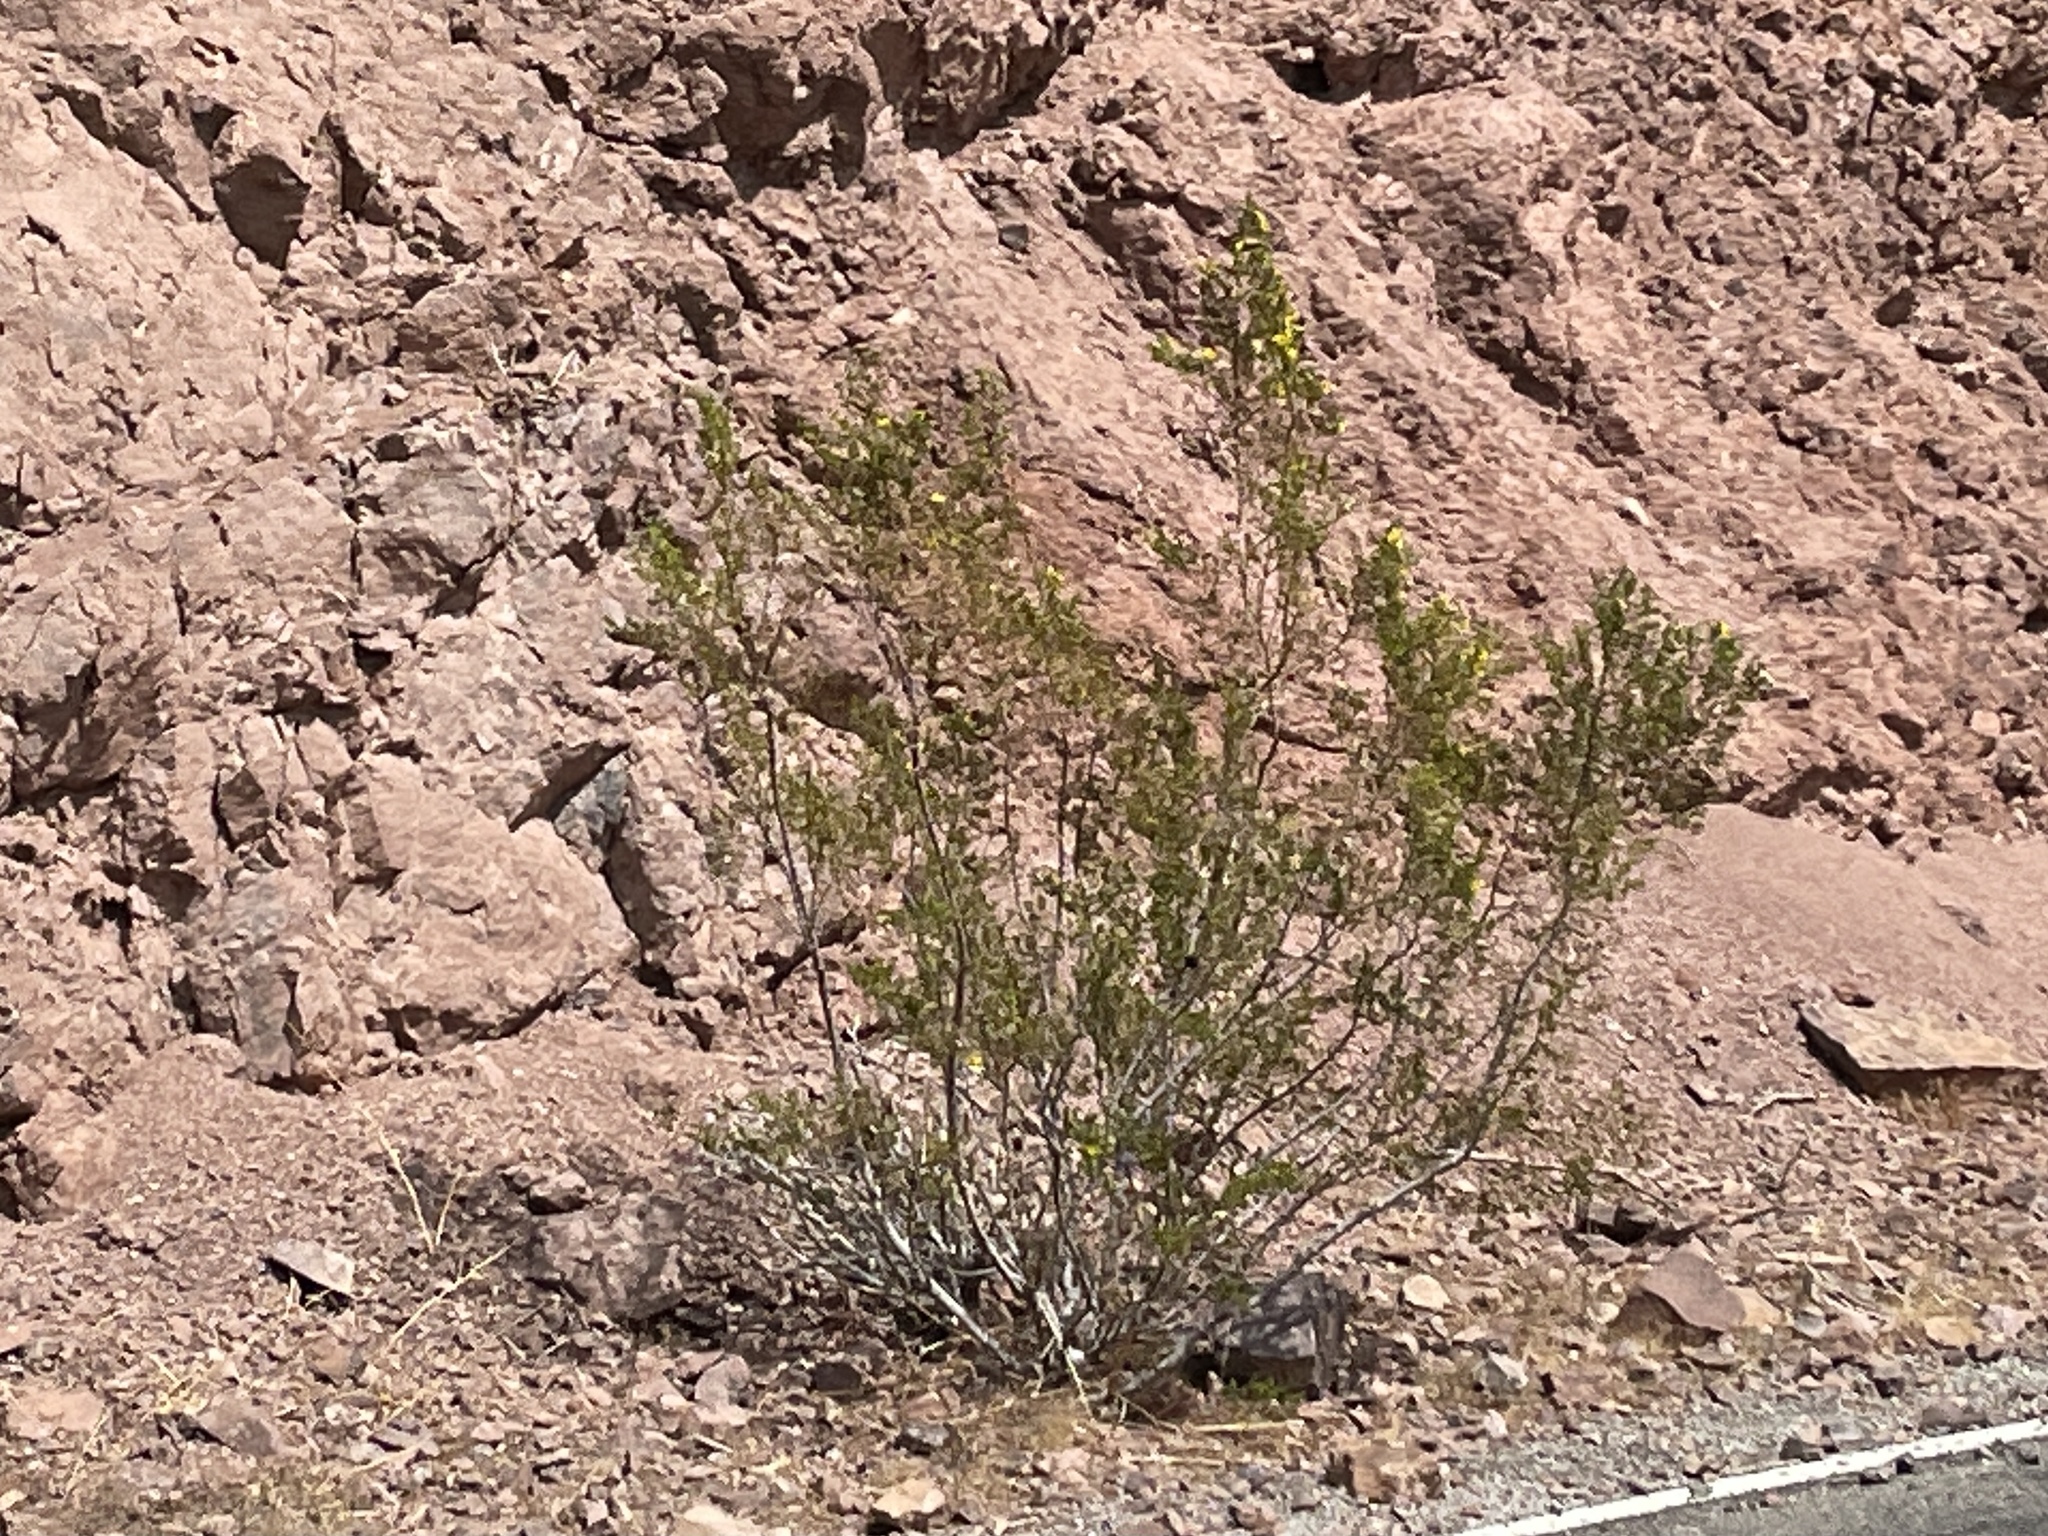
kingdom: Plantae
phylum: Tracheophyta
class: Magnoliopsida
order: Zygophyllales
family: Zygophyllaceae
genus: Larrea
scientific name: Larrea tridentata
